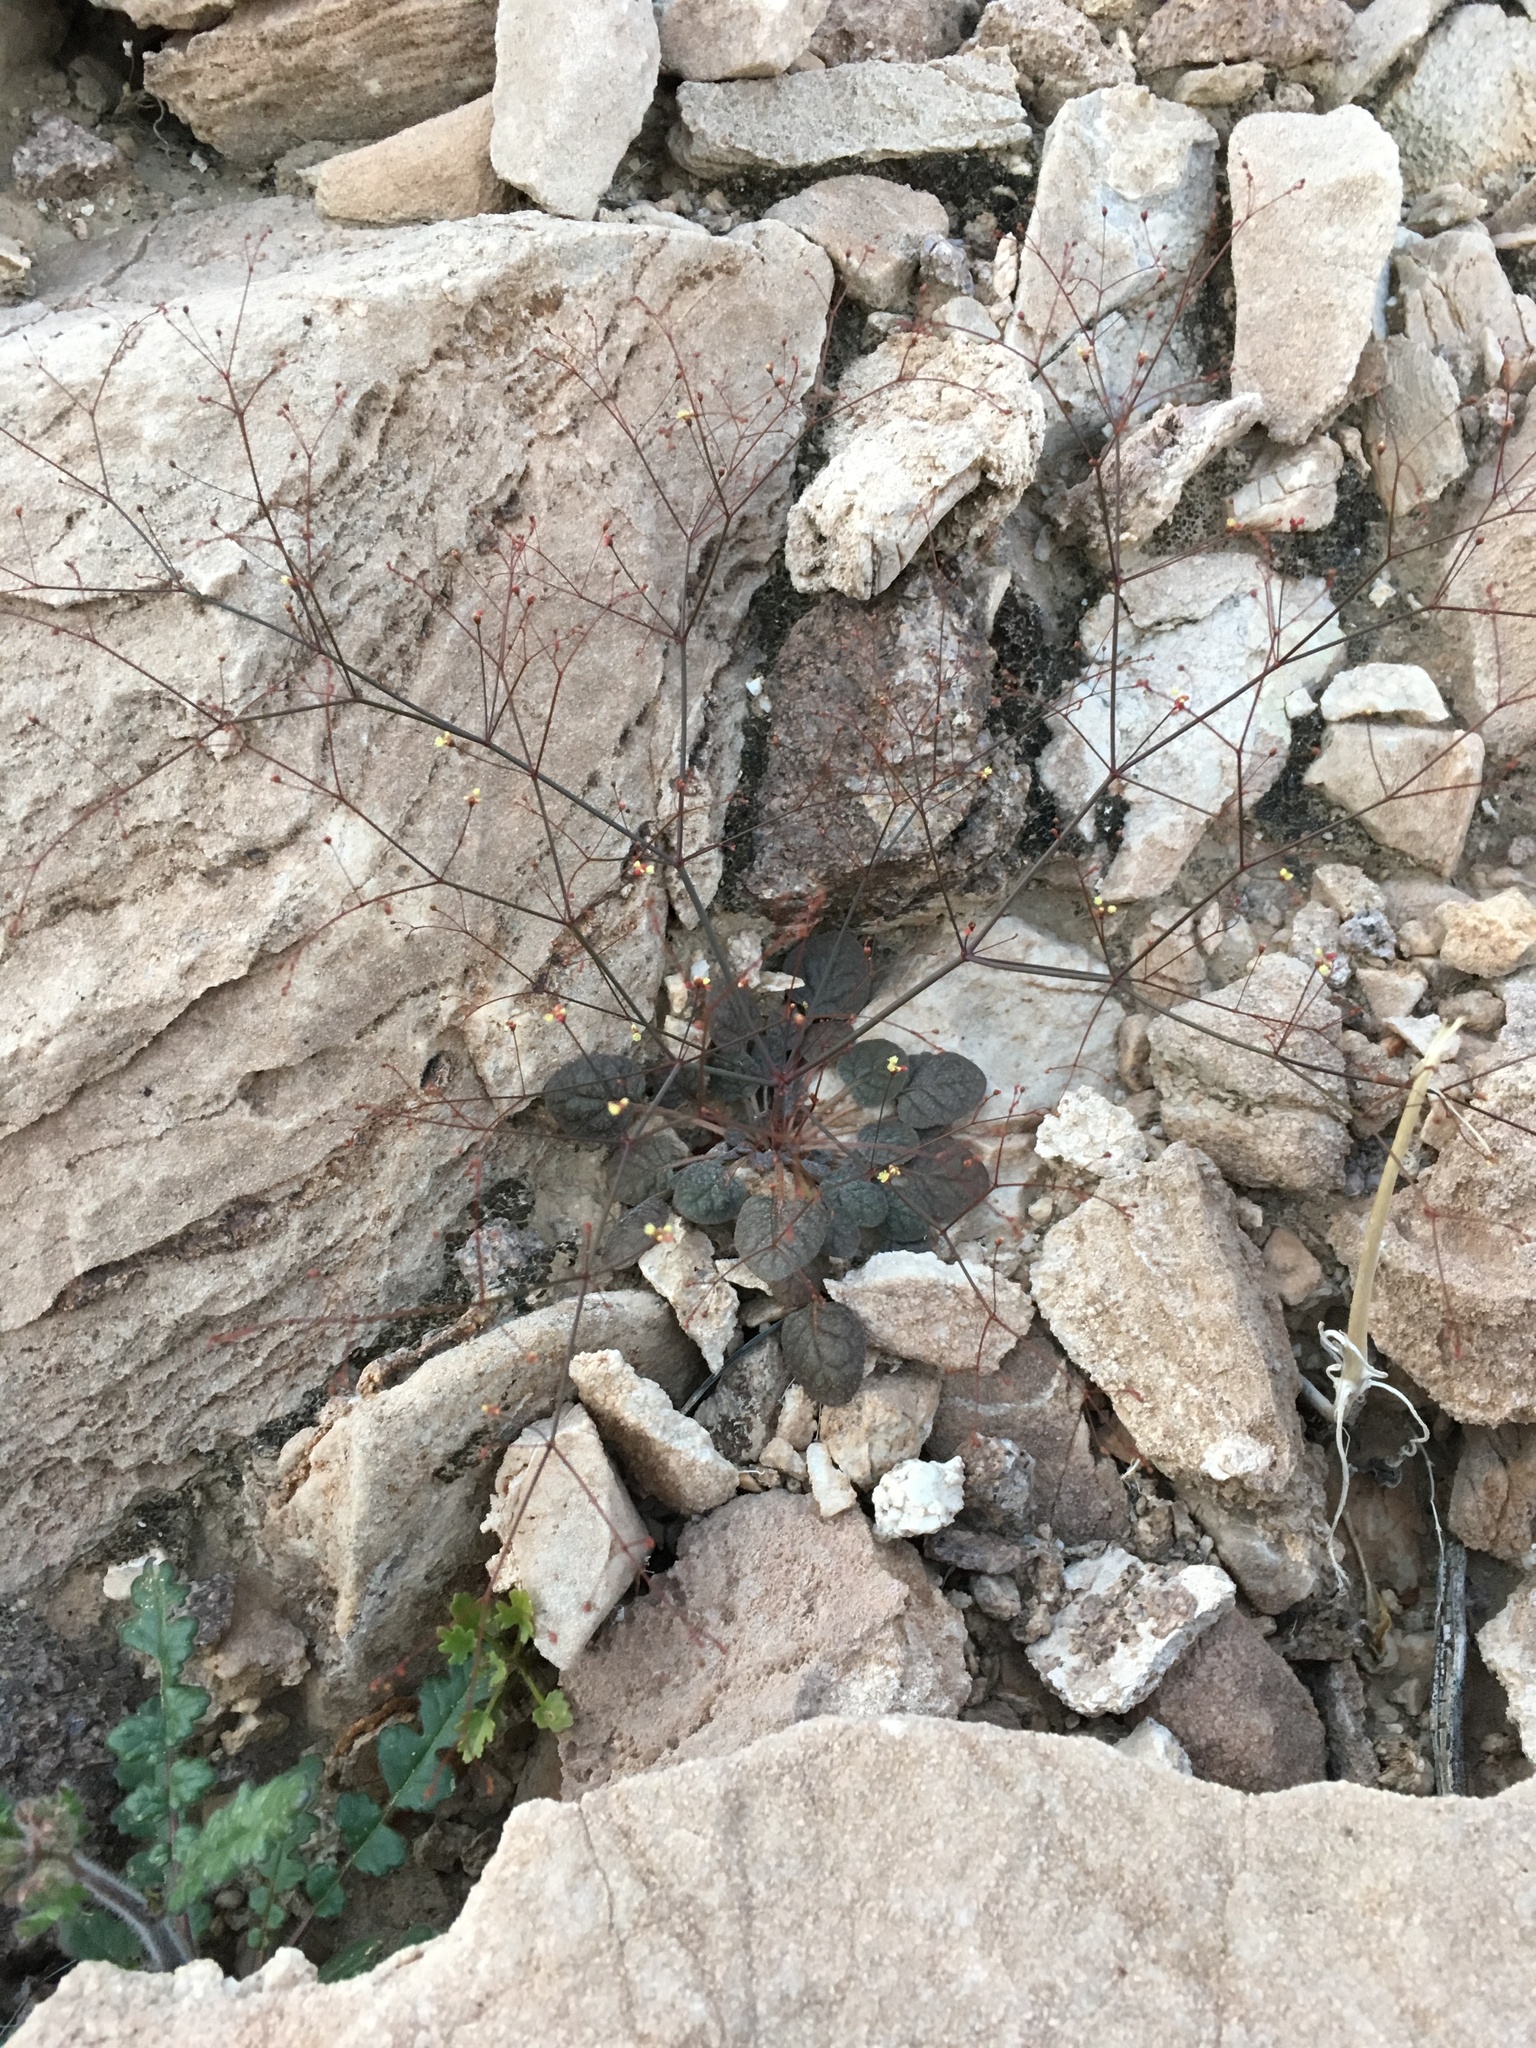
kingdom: Plantae
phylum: Tracheophyta
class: Magnoliopsida
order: Caryophyllales
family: Polygonaceae
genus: Eriogonum
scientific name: Eriogonum thomasii
